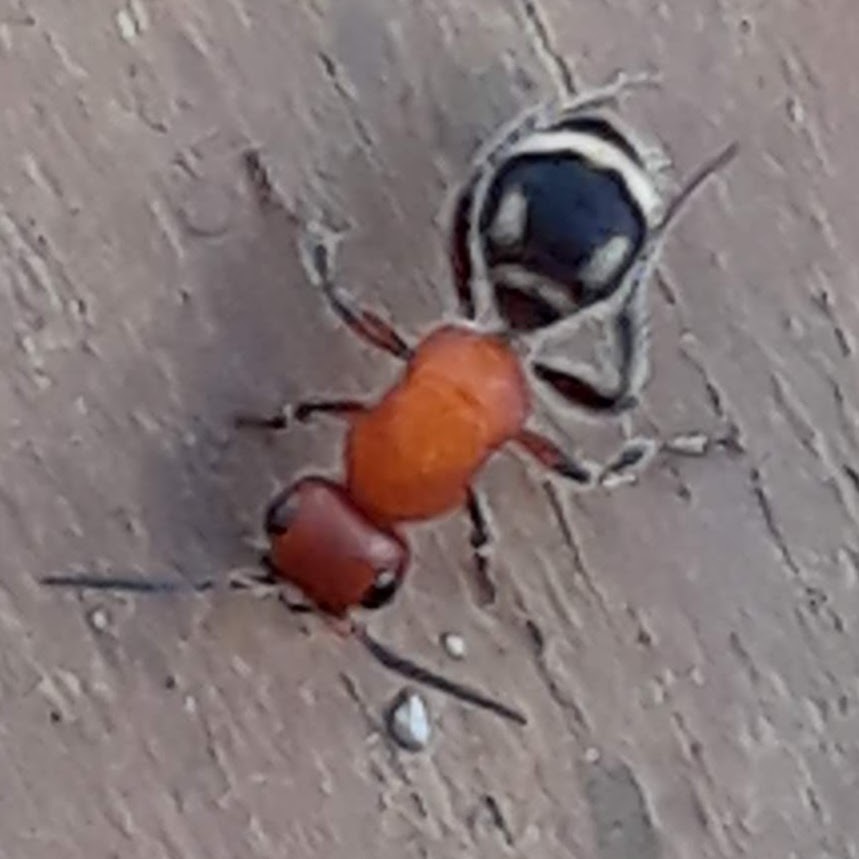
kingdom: Animalia
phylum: Arthropoda
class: Insecta
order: Hymenoptera
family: Mutillidae
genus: Timulla
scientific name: Timulla
